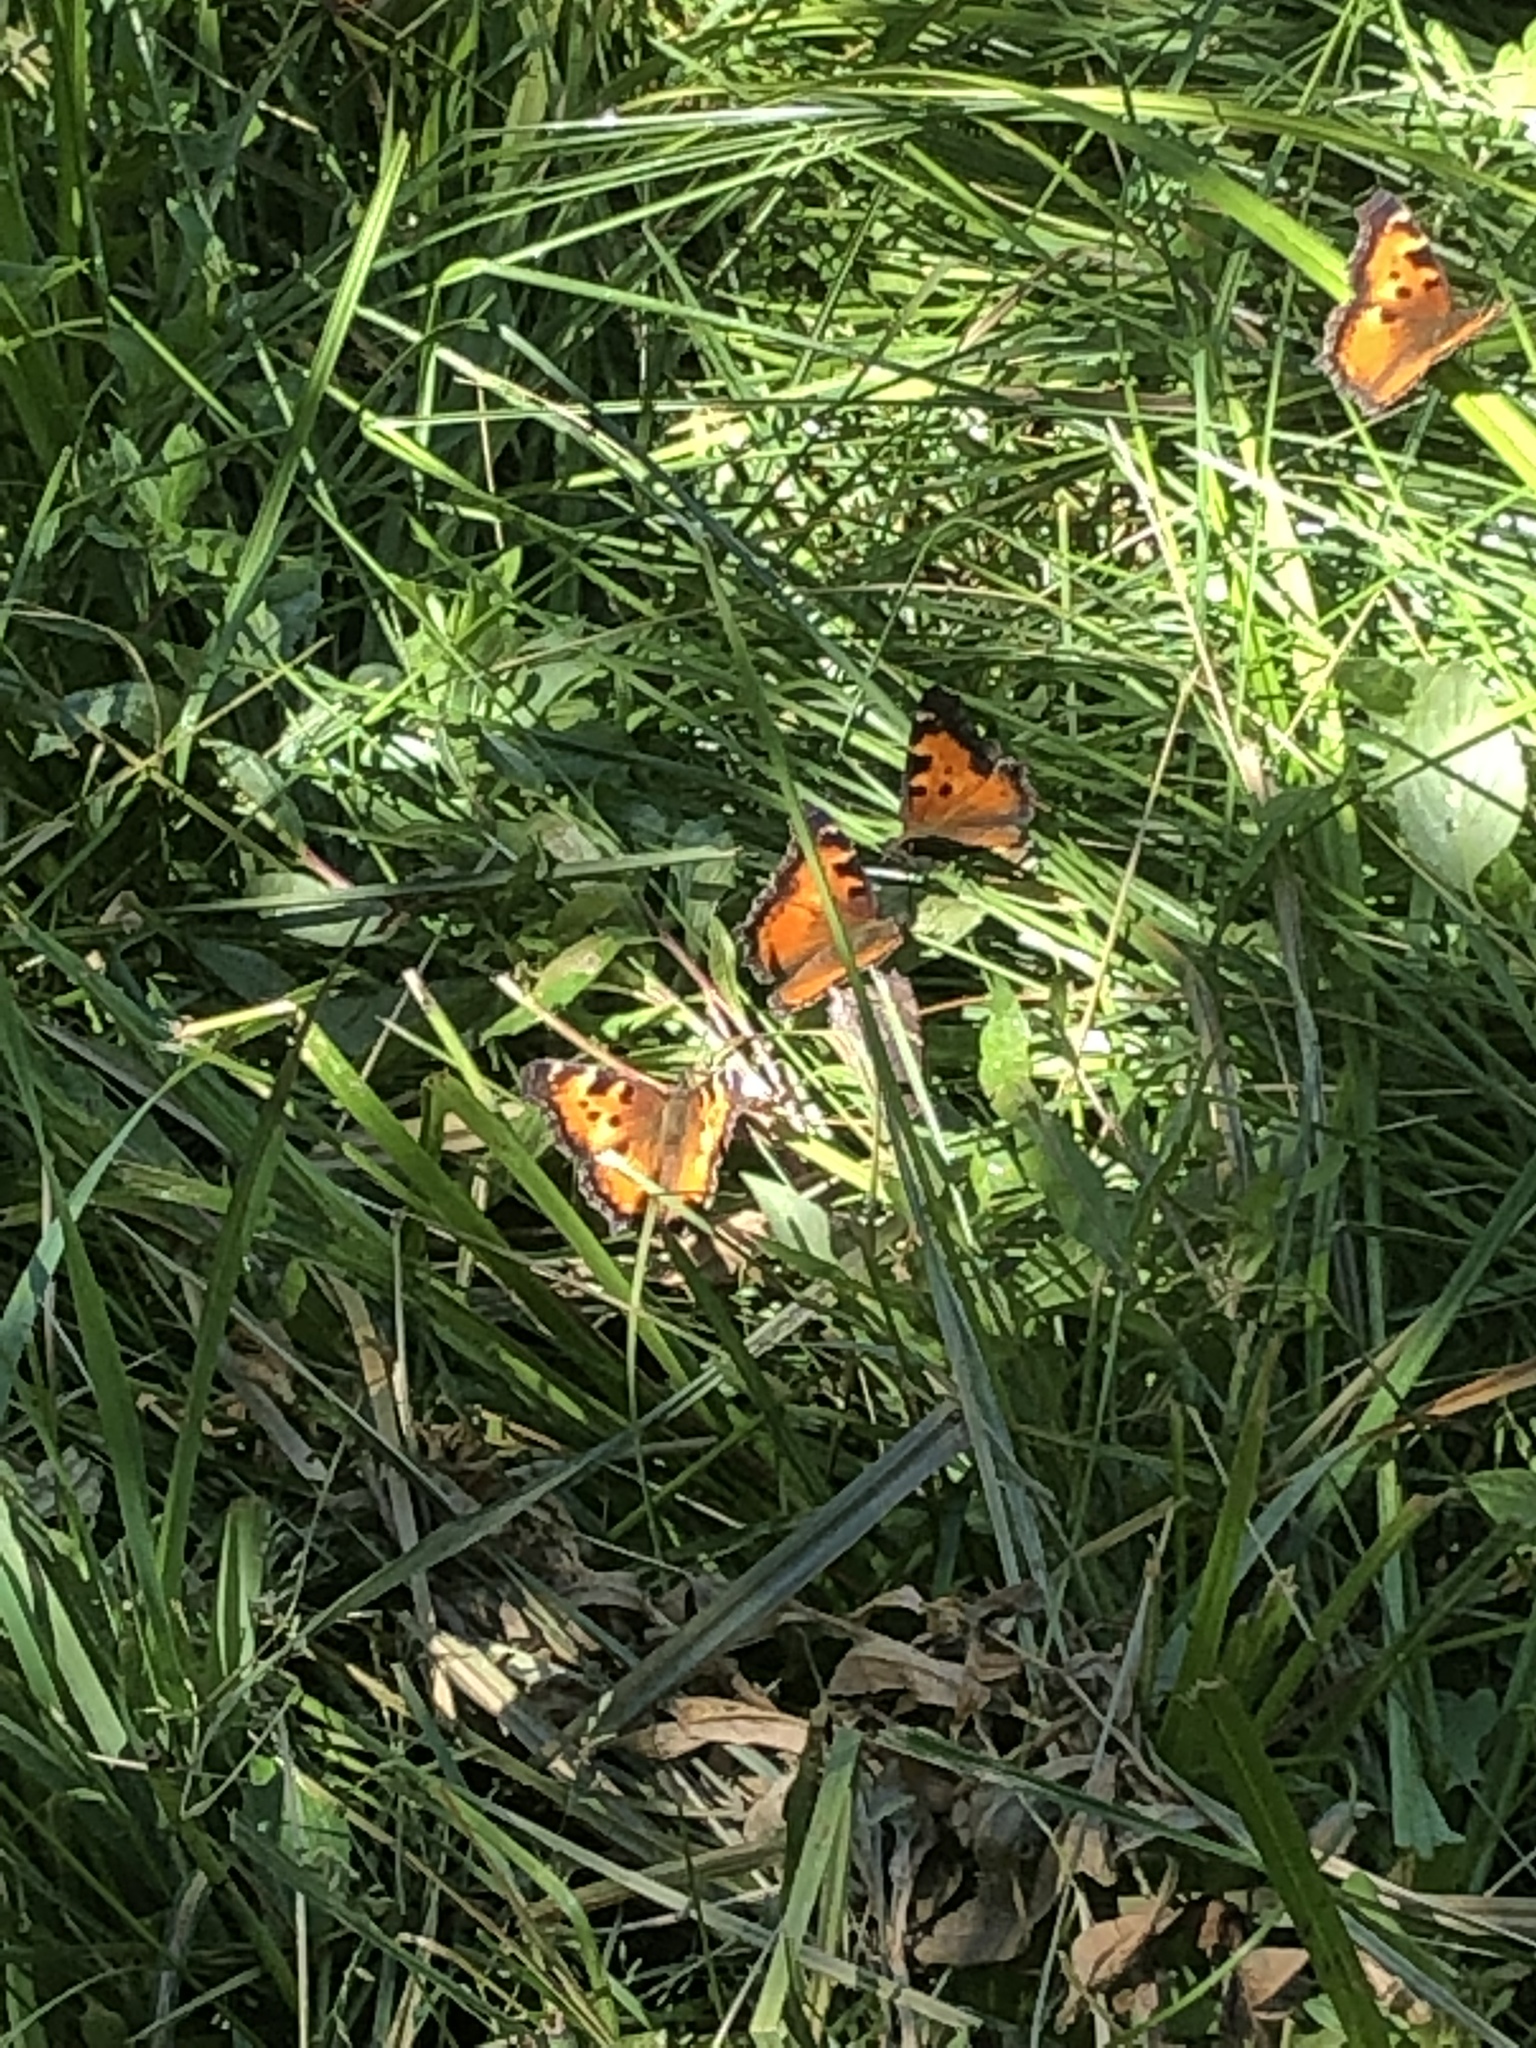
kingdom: Animalia
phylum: Arthropoda
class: Insecta
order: Lepidoptera
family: Nymphalidae
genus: Nymphalis
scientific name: Nymphalis californica
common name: California tortoiseshell
